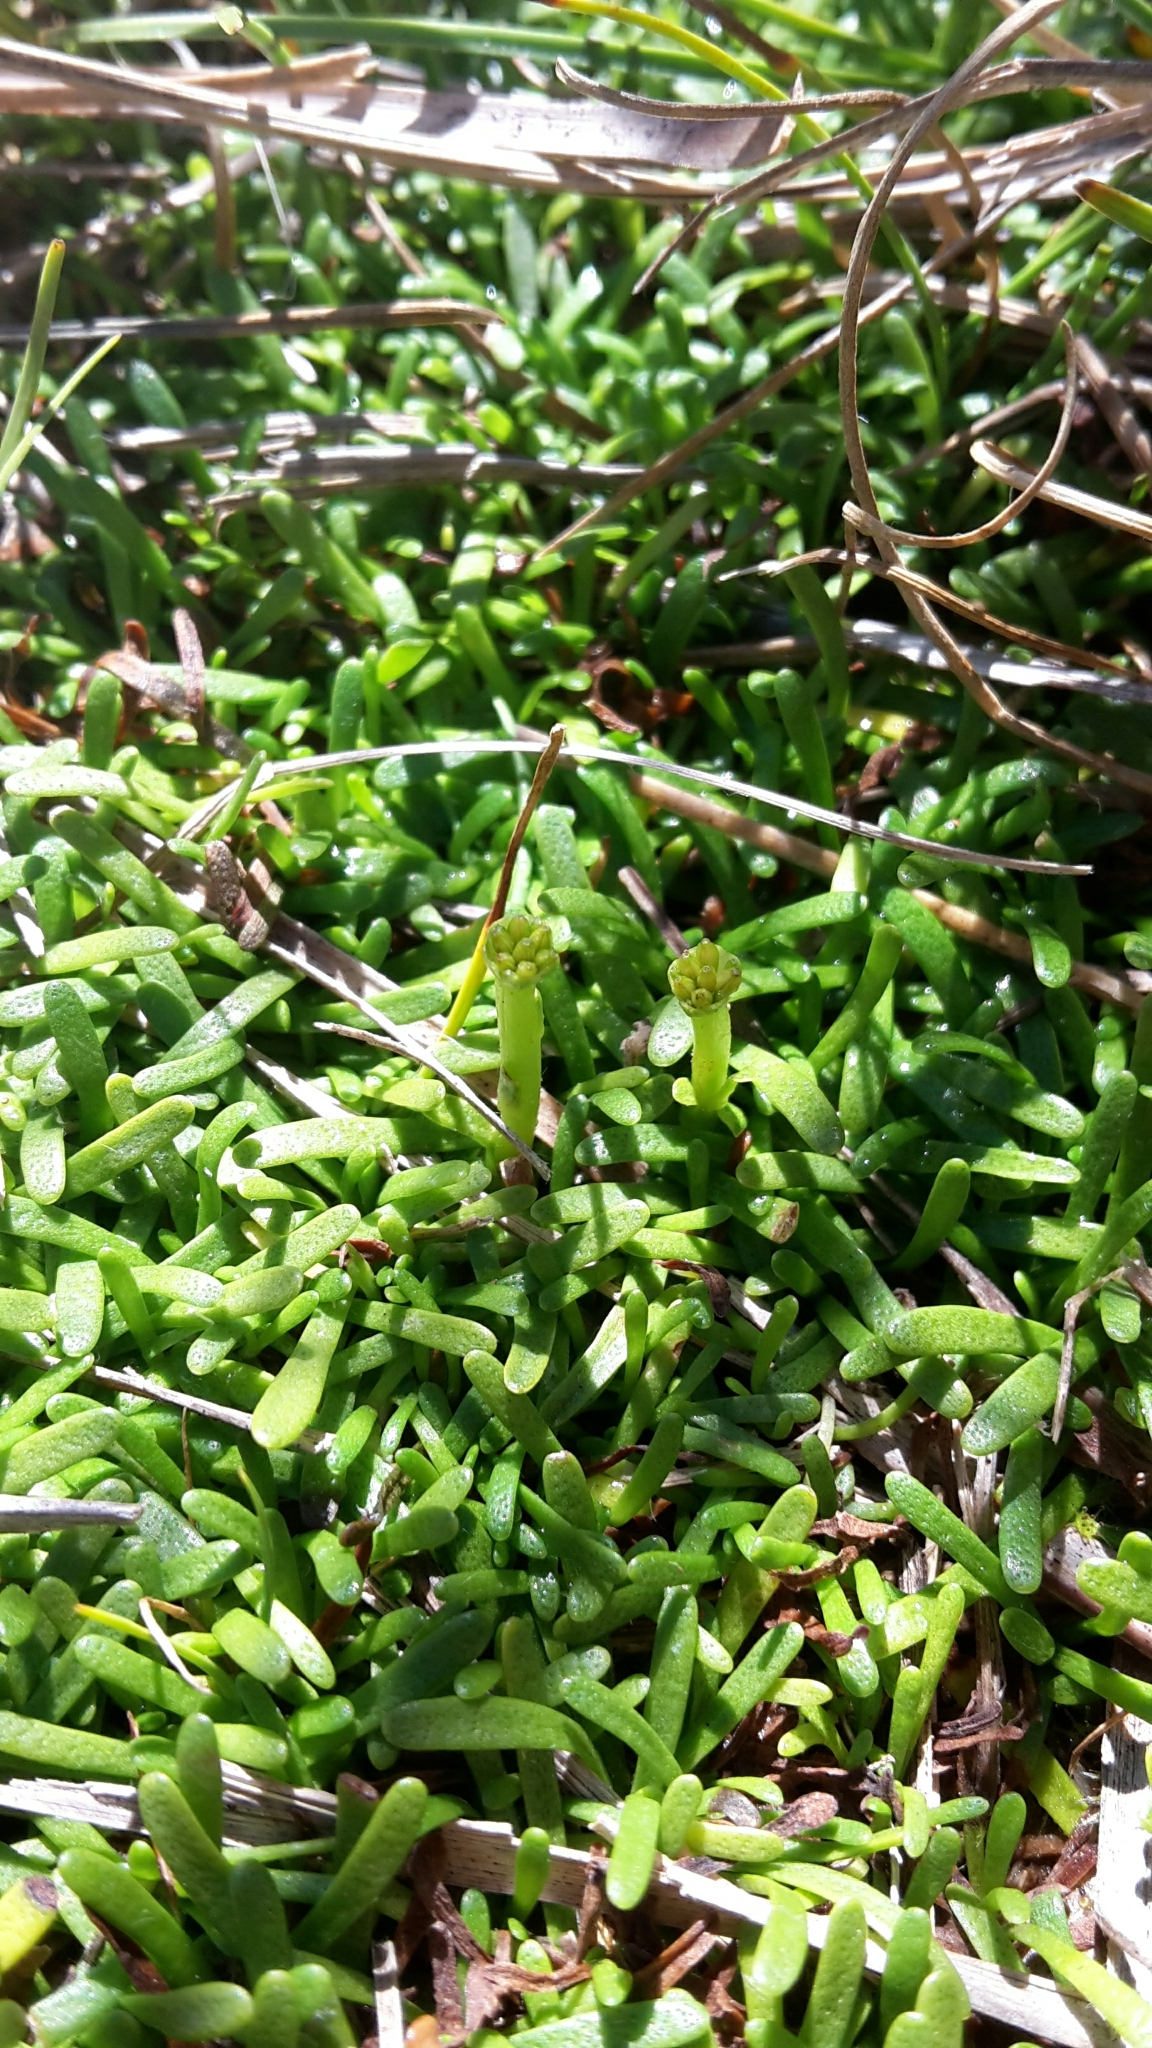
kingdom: Plantae
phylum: Tracheophyta
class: Magnoliopsida
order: Asterales
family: Asteraceae
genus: Abrotanella
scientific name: Abrotanella caespitosa
